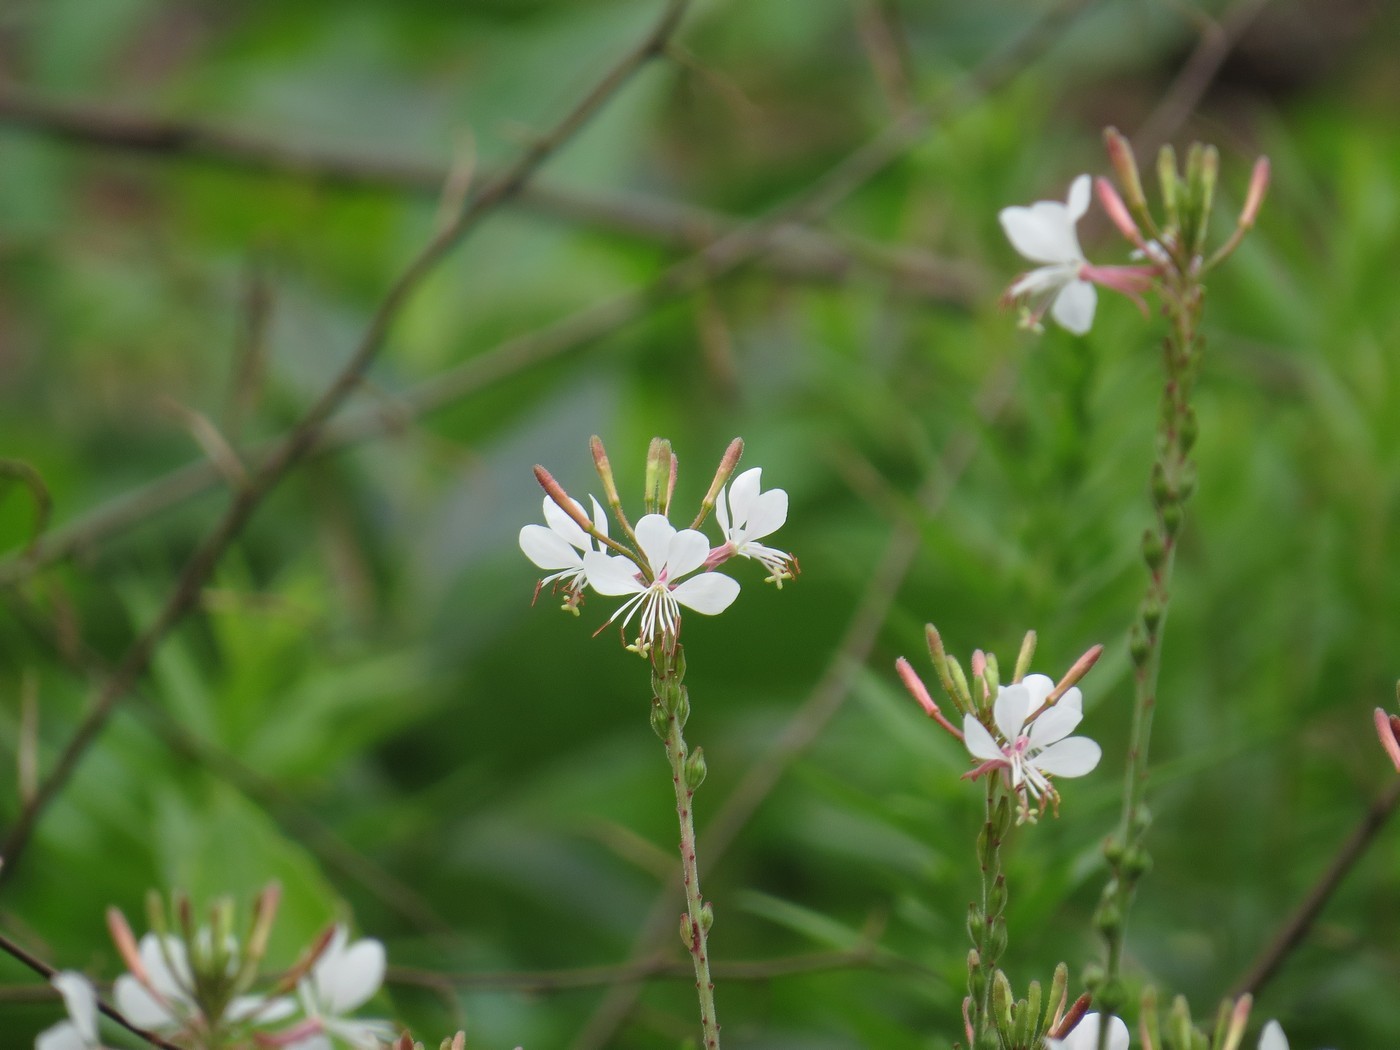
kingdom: Plantae
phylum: Tracheophyta
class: Magnoliopsida
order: Myrtales
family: Onagraceae
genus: Oenothera
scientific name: Oenothera gaura
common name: Biennial beeblossom
